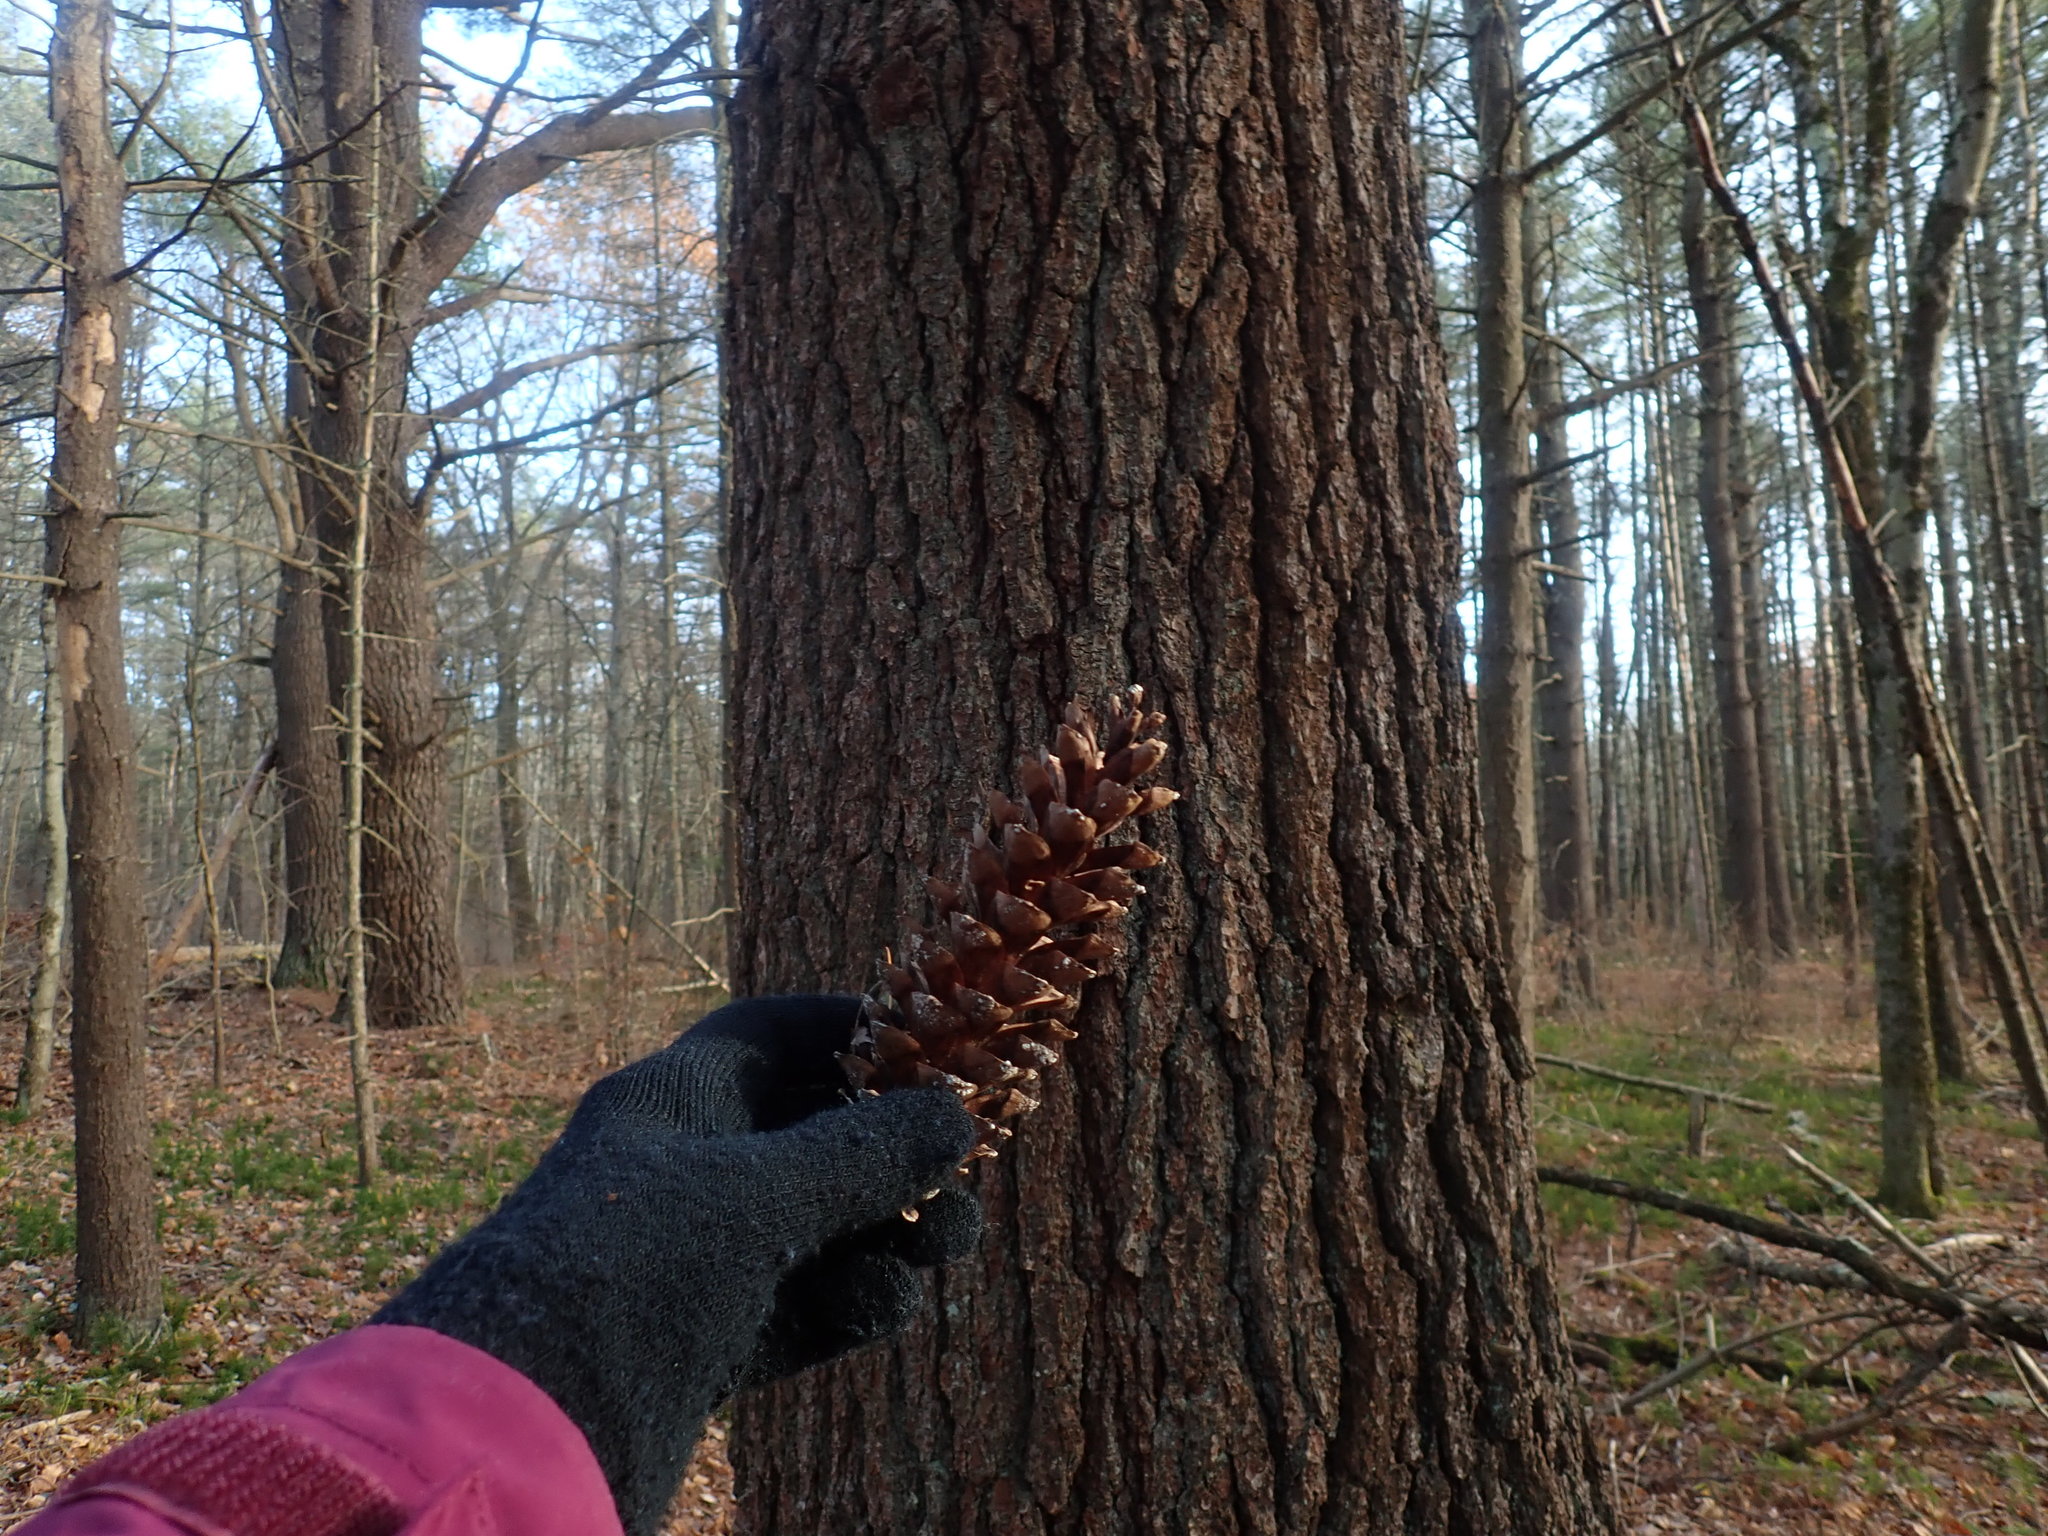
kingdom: Plantae
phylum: Tracheophyta
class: Pinopsida
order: Pinales
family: Pinaceae
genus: Pinus
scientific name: Pinus strobus
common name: Weymouth pine
